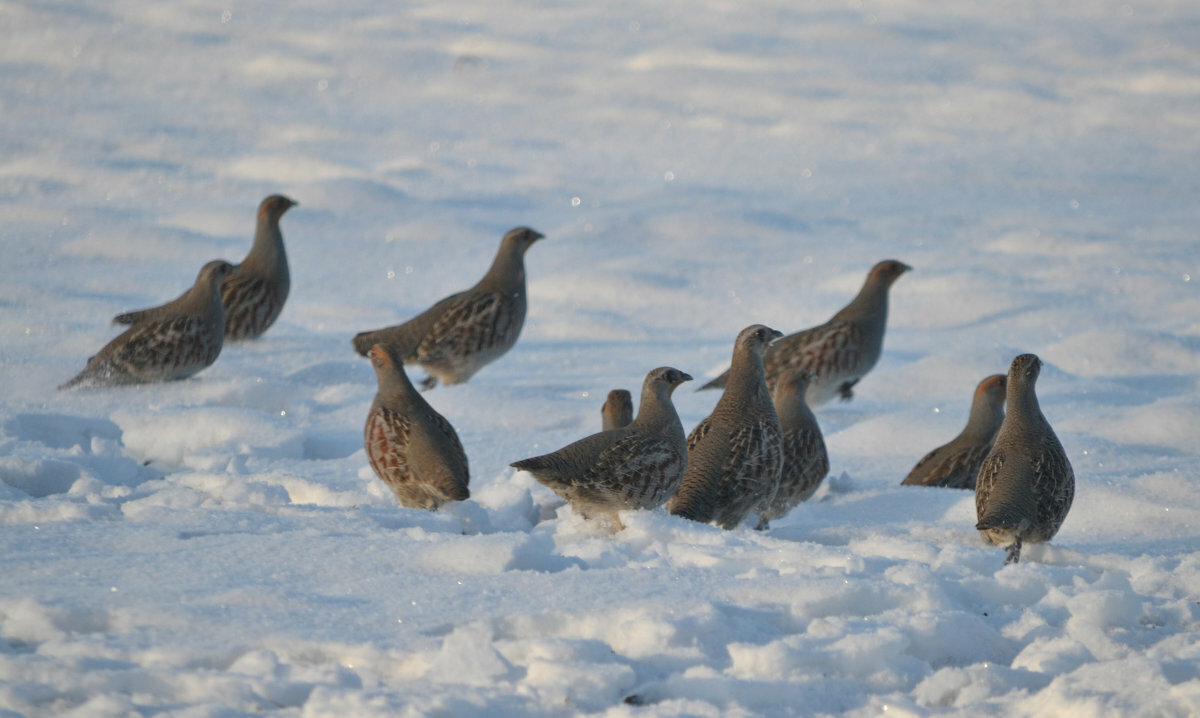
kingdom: Animalia
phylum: Chordata
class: Aves
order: Galliformes
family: Phasianidae
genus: Perdix
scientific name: Perdix perdix
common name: Grey partridge
